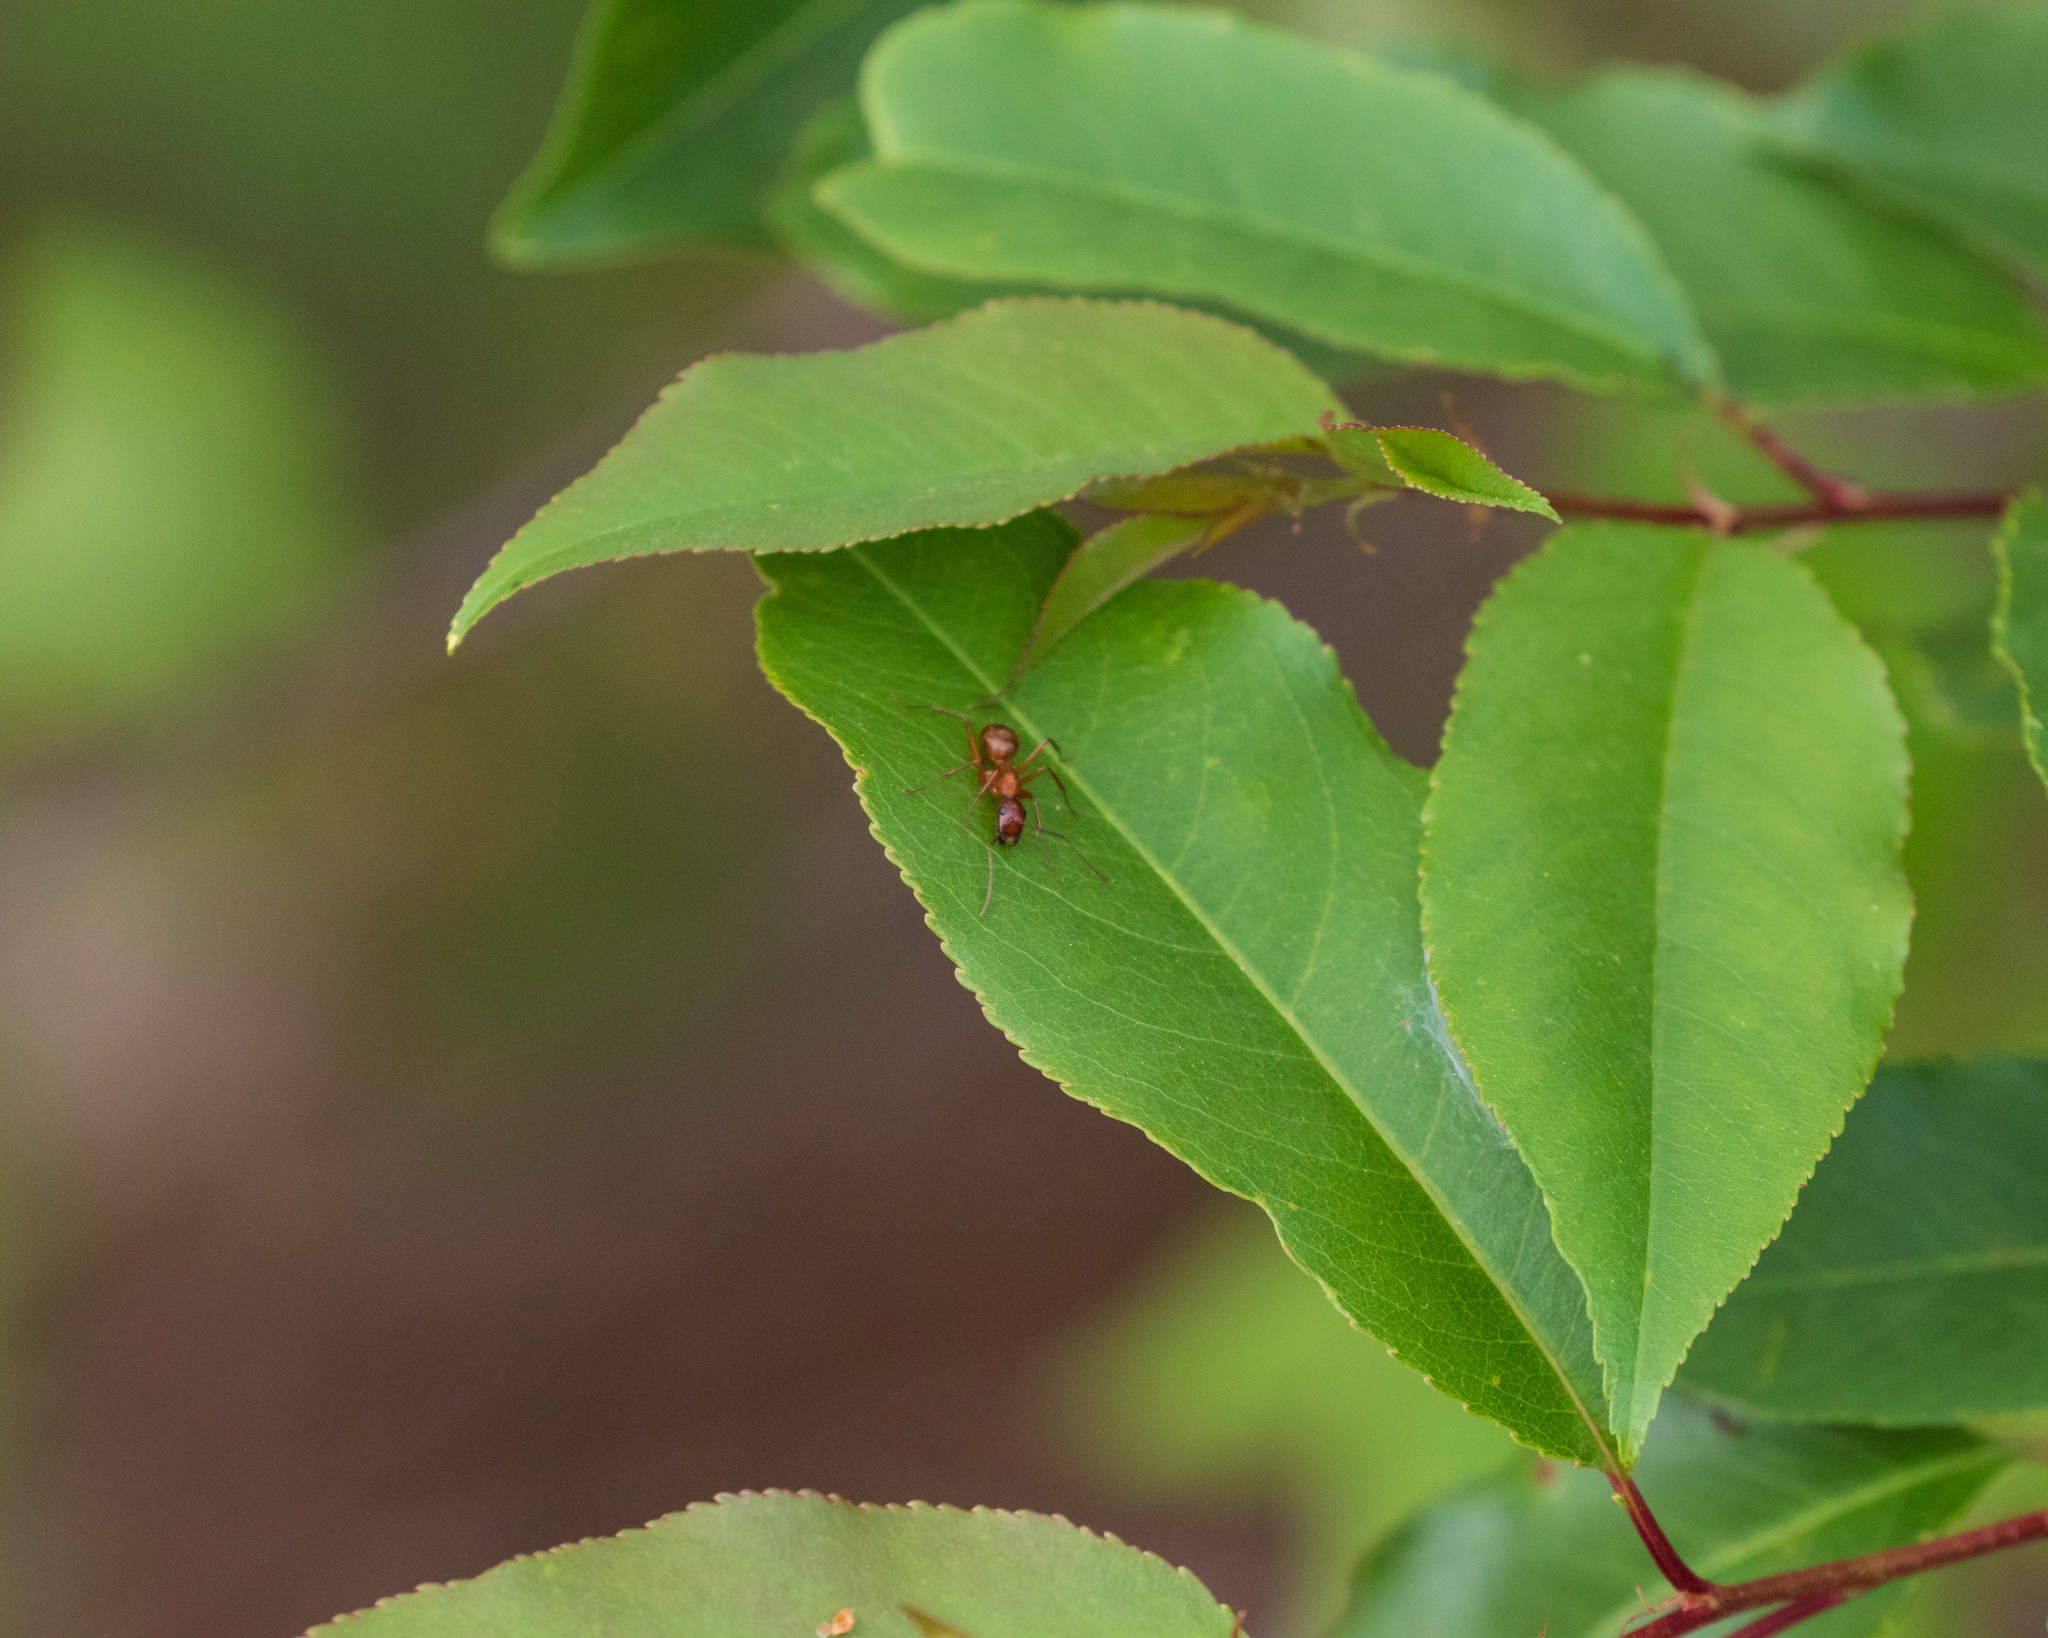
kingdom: Animalia
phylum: Arthropoda
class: Insecta
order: Hymenoptera
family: Formicidae
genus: Camponotus
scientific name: Camponotus castaneus
